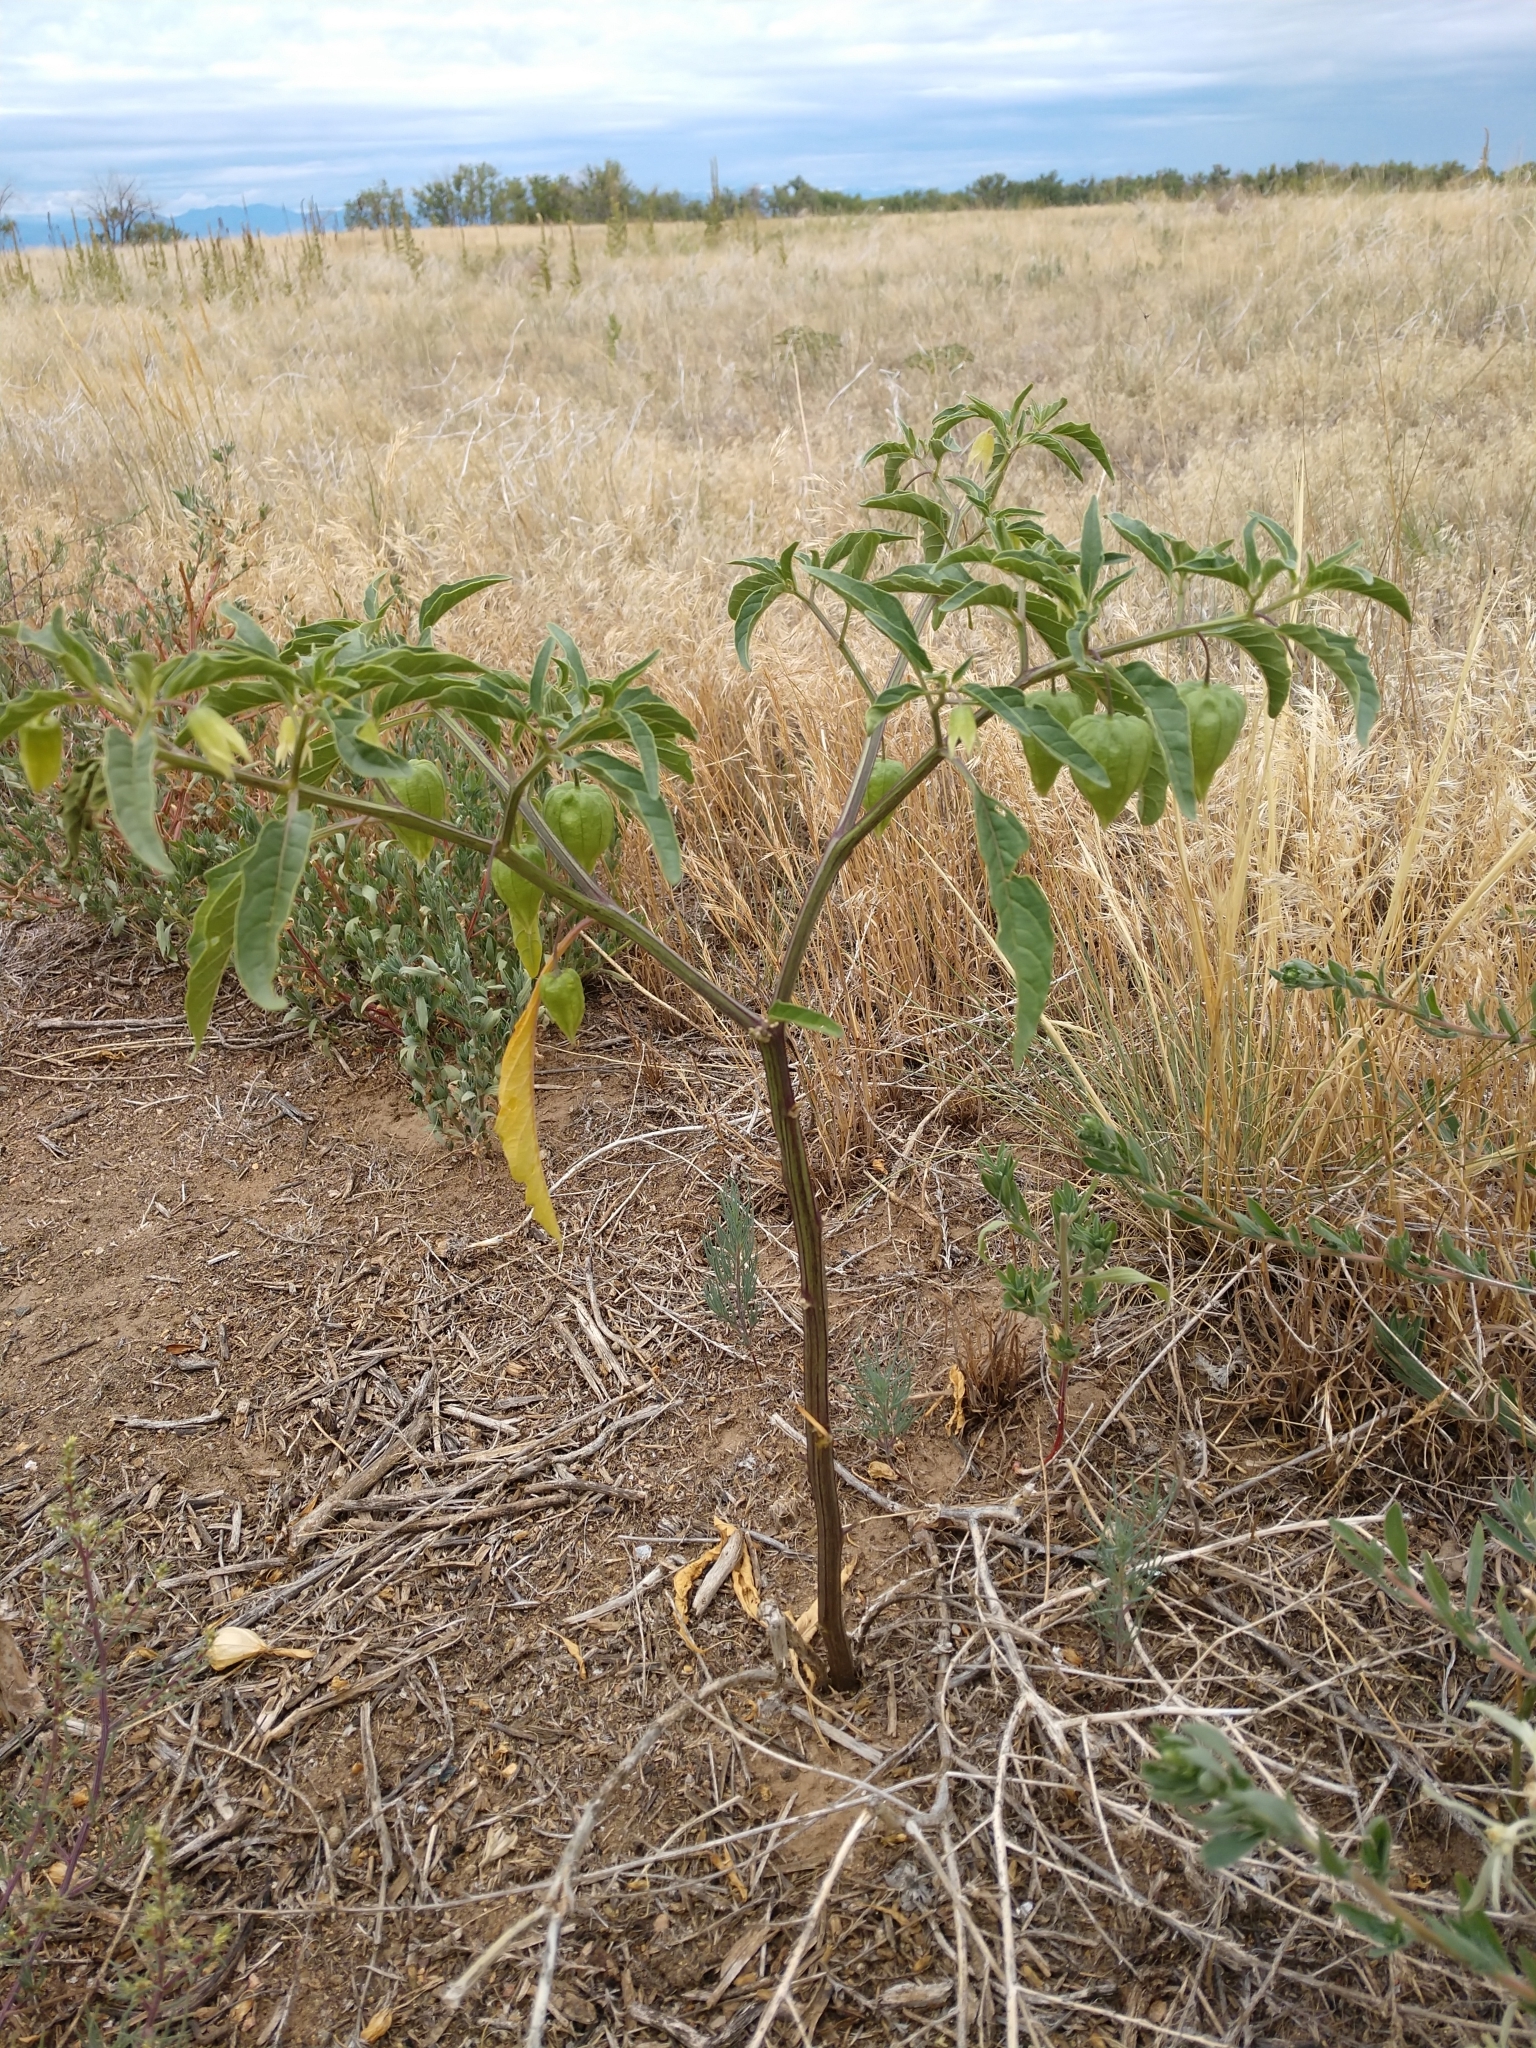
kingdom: Plantae
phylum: Tracheophyta
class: Magnoliopsida
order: Solanales
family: Solanaceae
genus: Physalis
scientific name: Physalis longifolia
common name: Common ground-cherry
